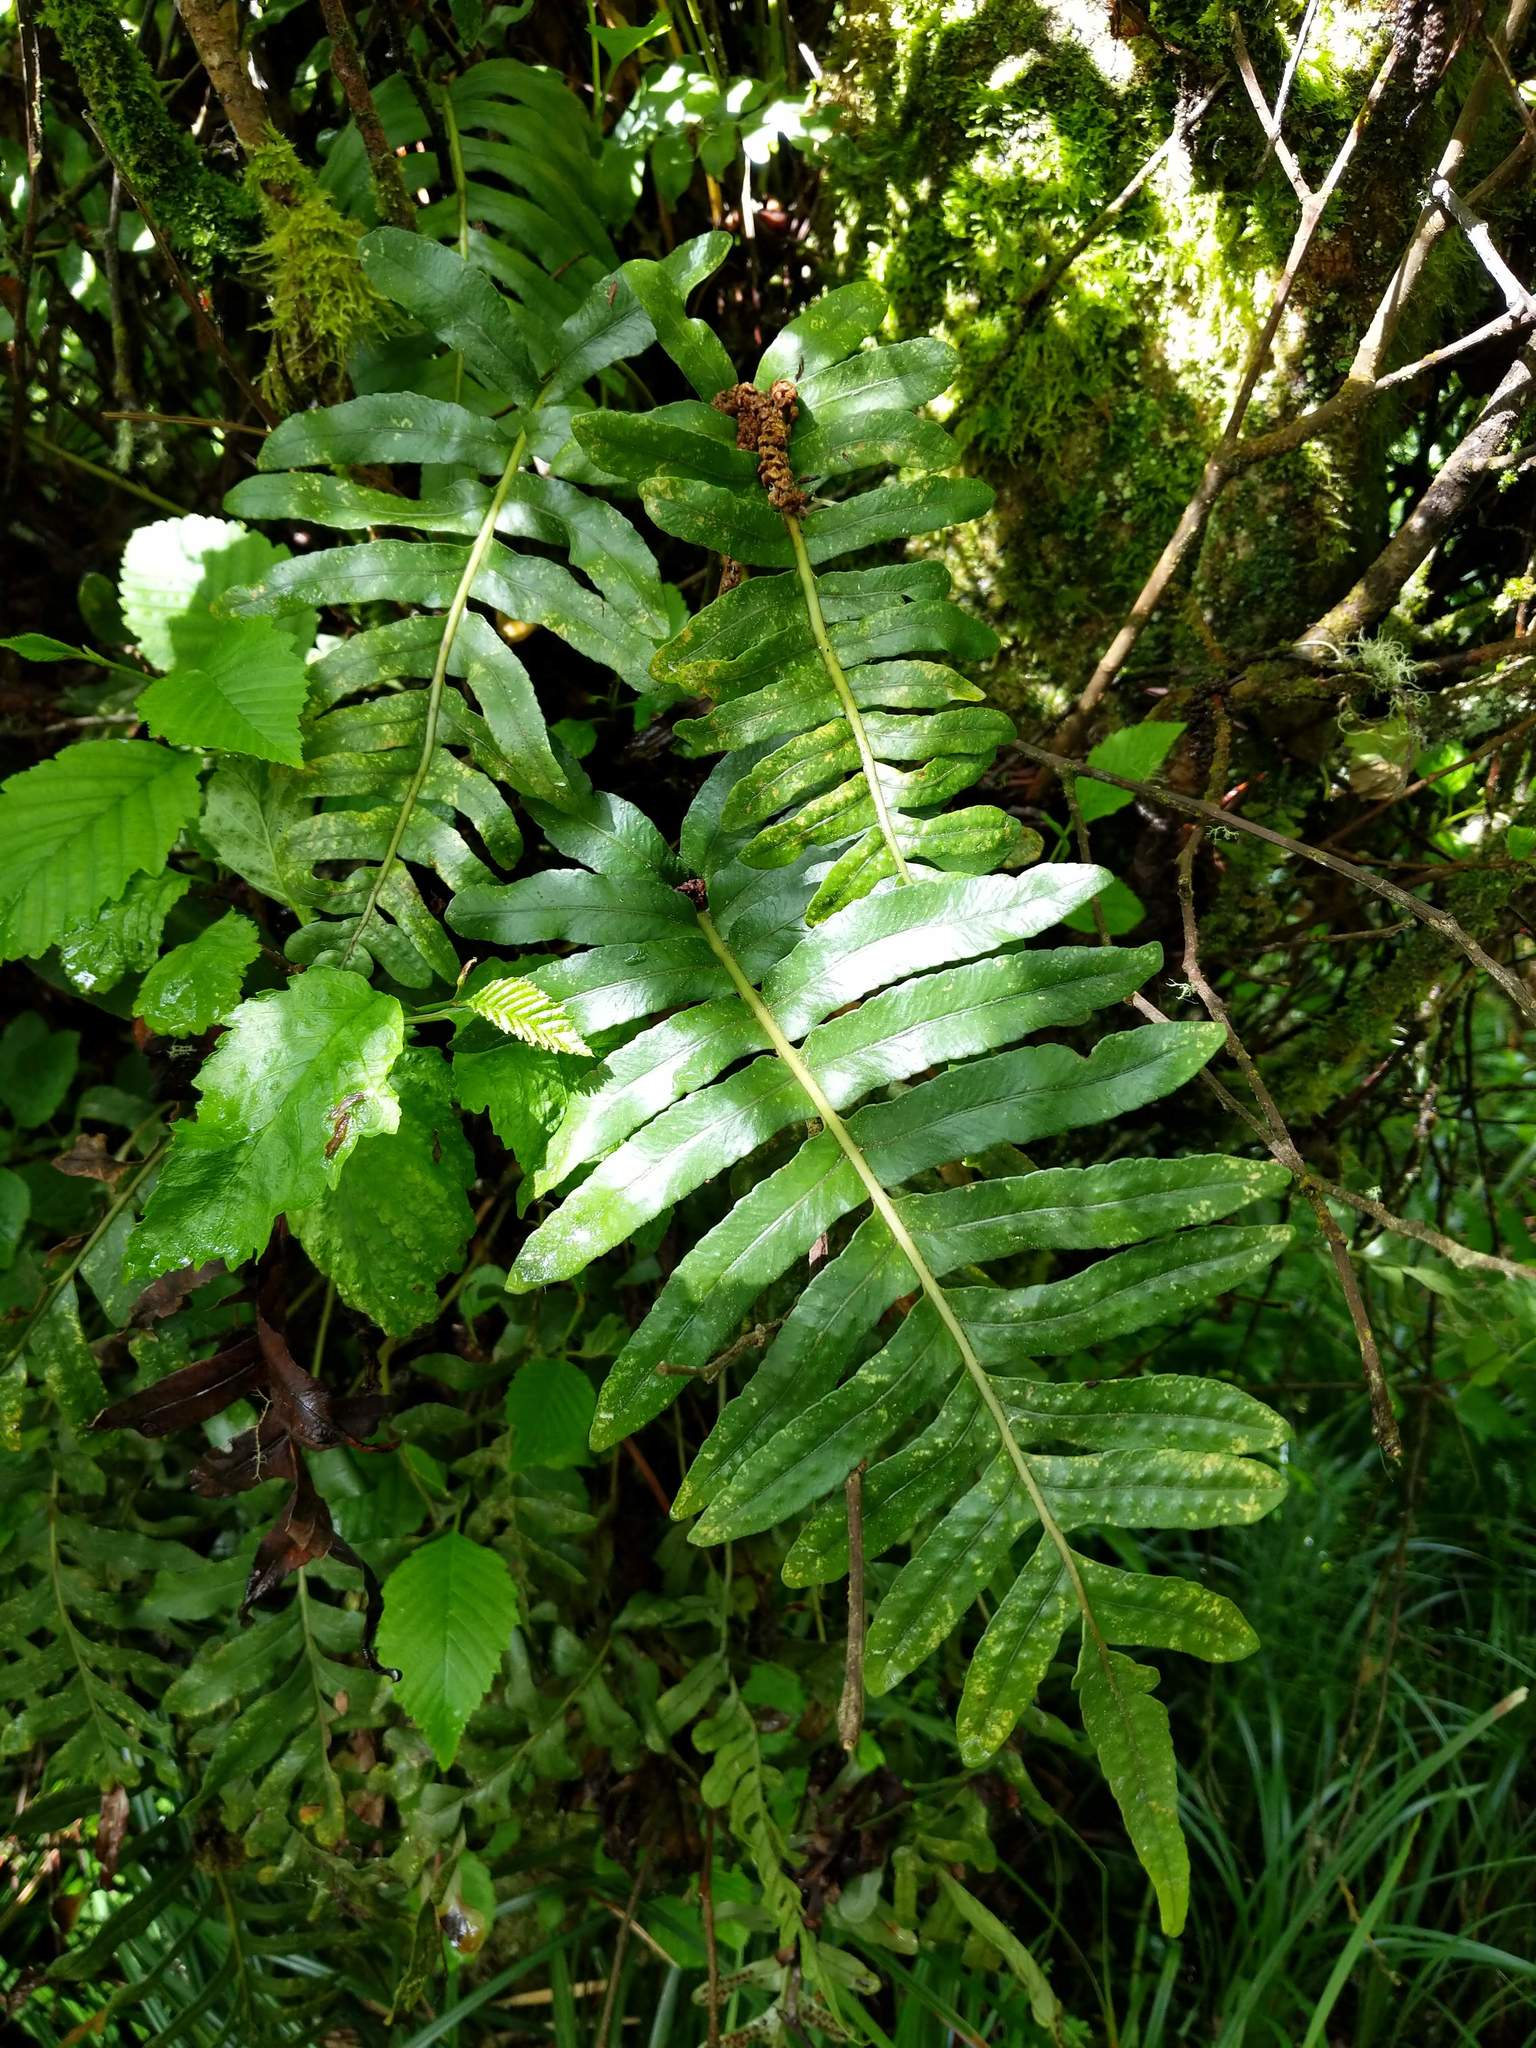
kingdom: Plantae
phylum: Tracheophyta
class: Polypodiopsida
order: Polypodiales
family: Polypodiaceae
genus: Polypodium
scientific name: Polypodium scouleri
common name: Scouler's polypody
